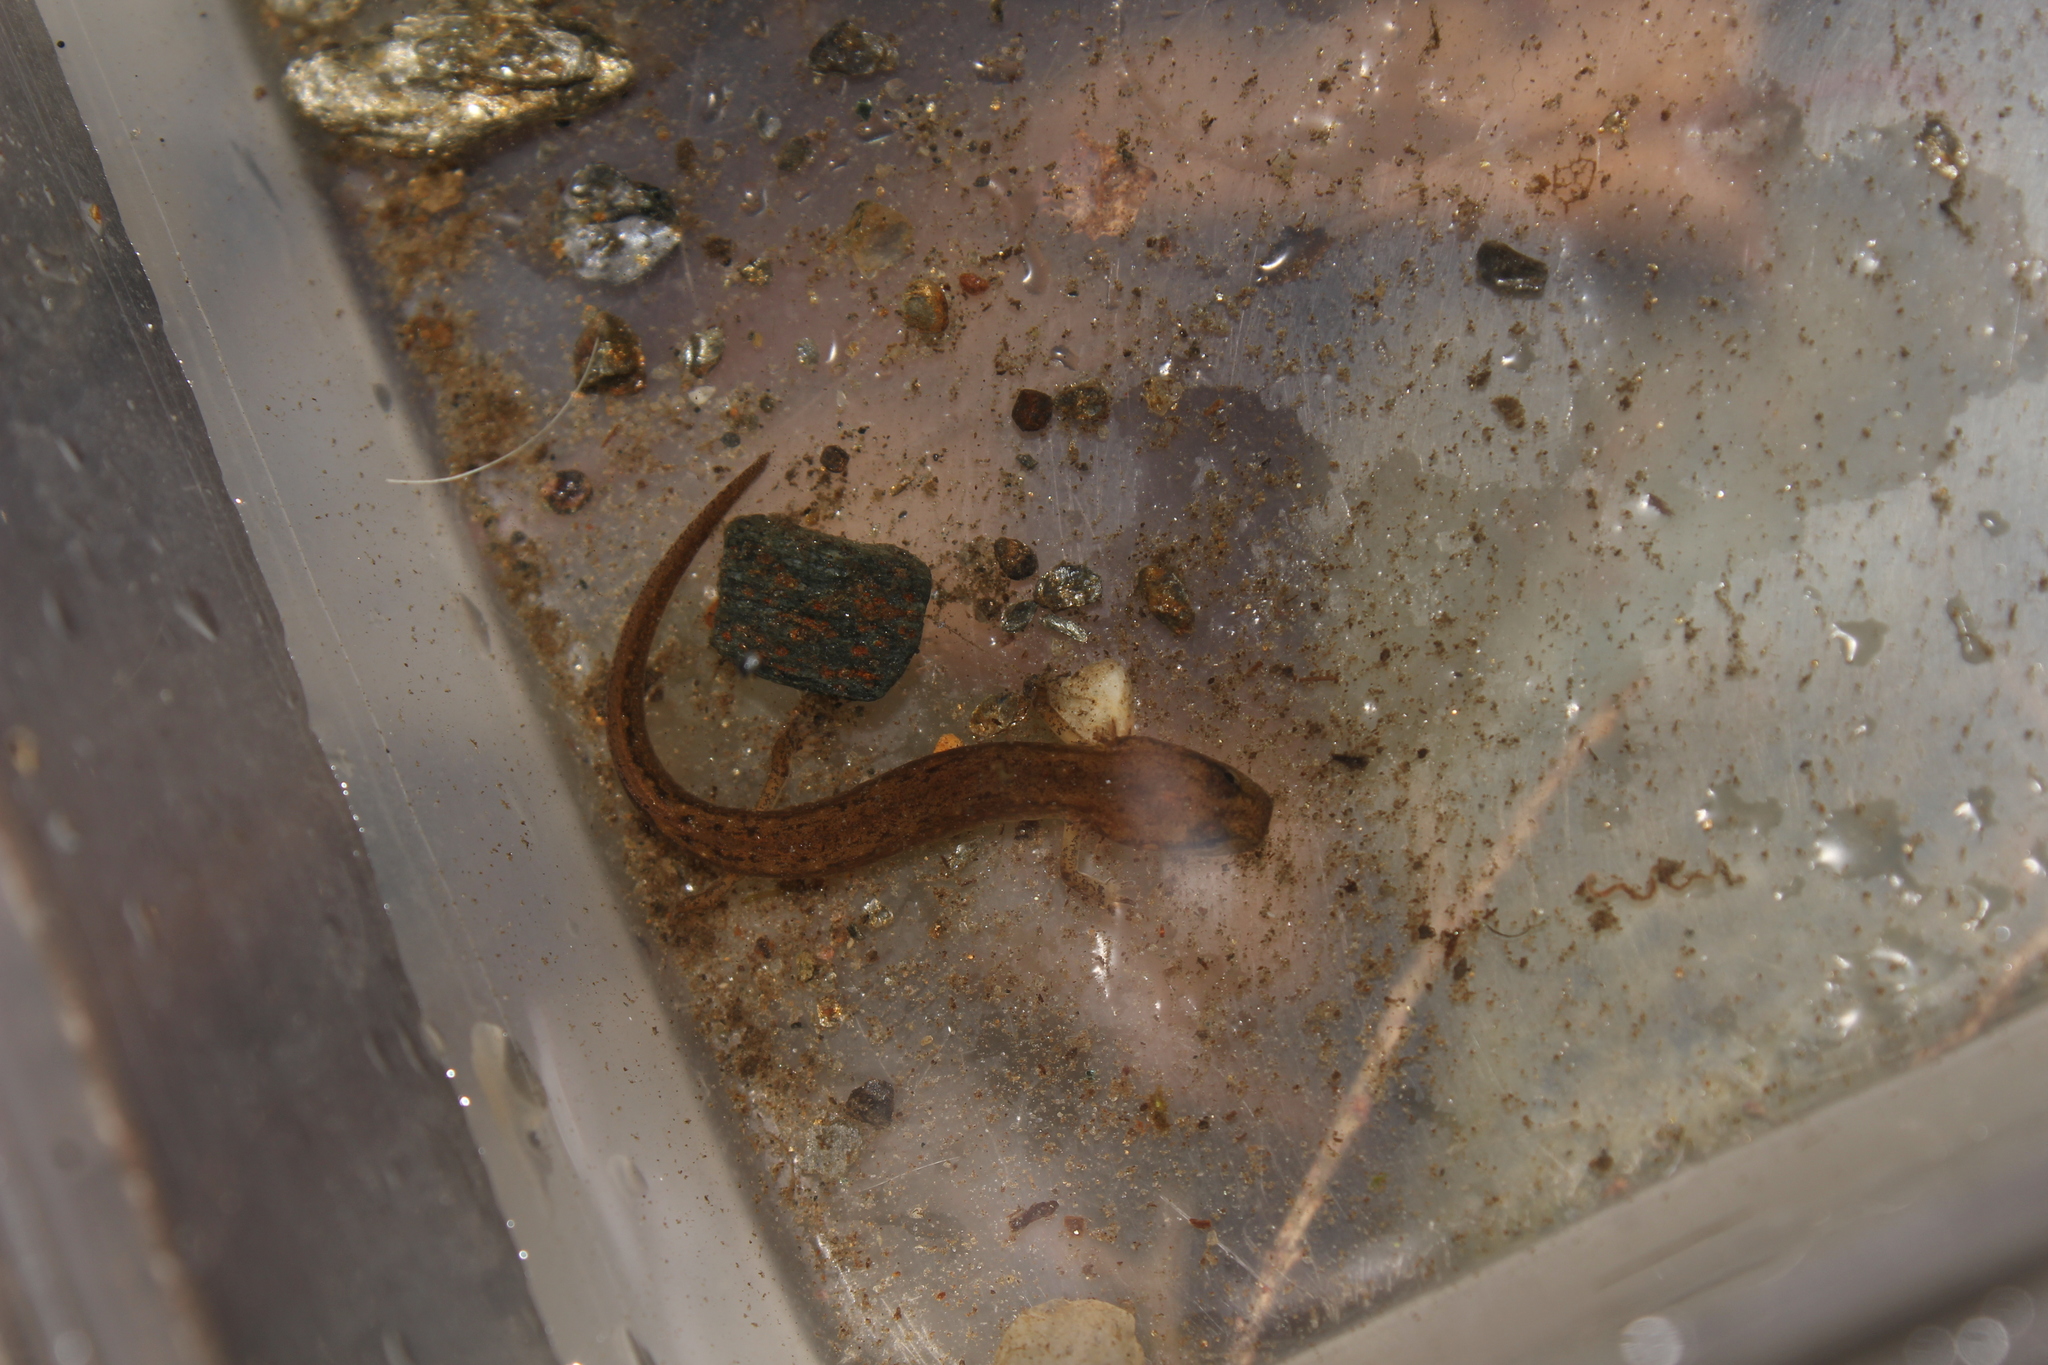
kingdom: Animalia
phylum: Chordata
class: Amphibia
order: Caudata
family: Plethodontidae
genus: Eurycea
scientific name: Eurycea bislineata
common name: Northern two-lined salamander
